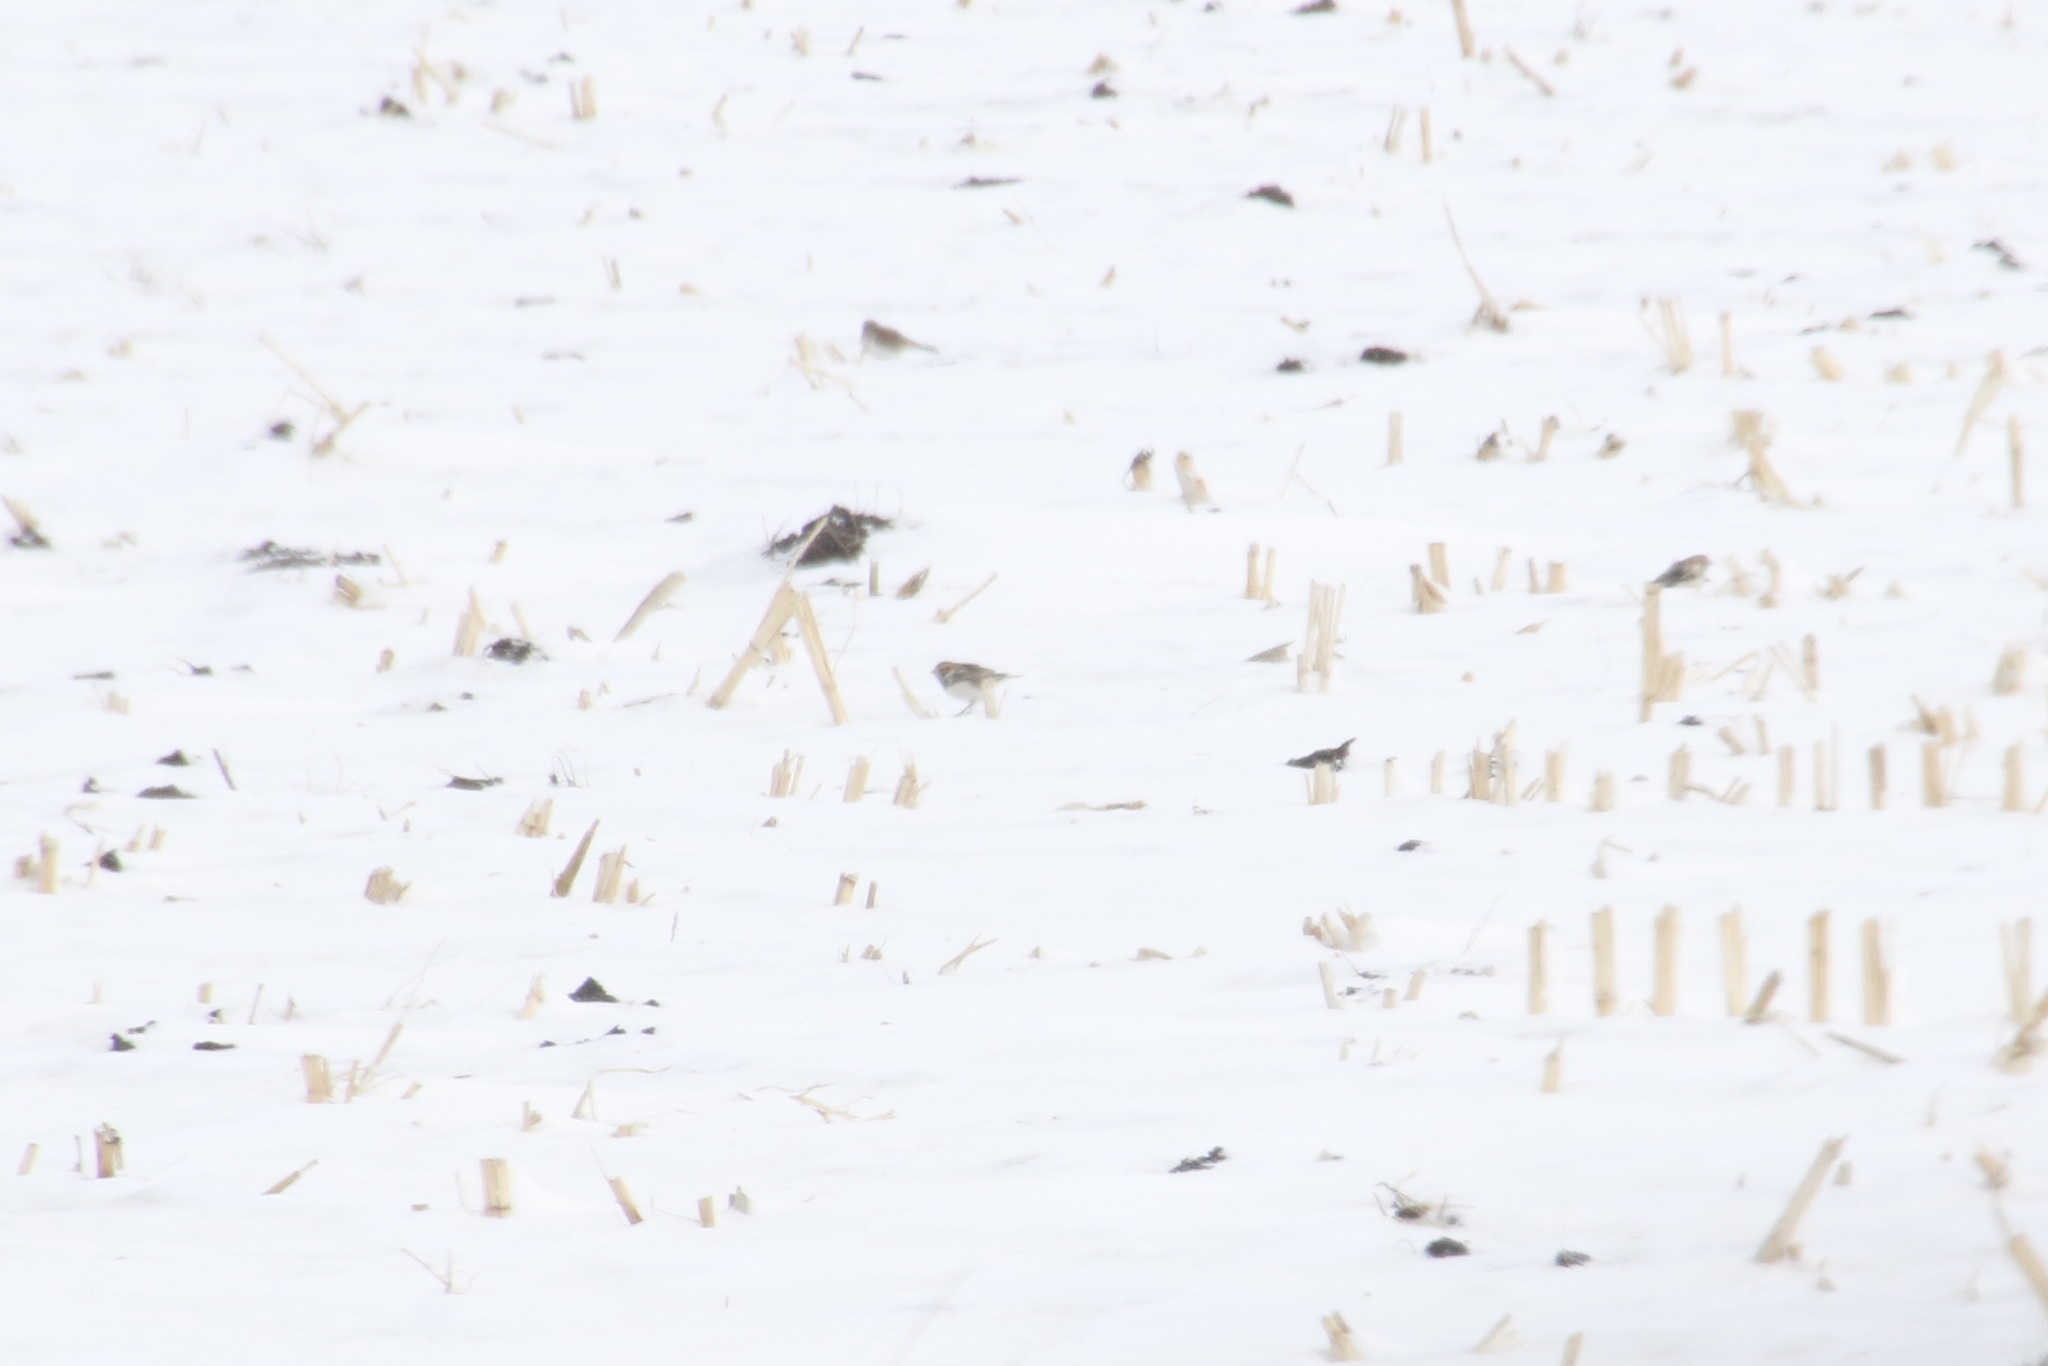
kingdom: Animalia
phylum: Chordata
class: Aves
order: Passeriformes
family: Calcariidae
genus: Calcarius
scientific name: Calcarius lapponicus
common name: Lapland longspur
